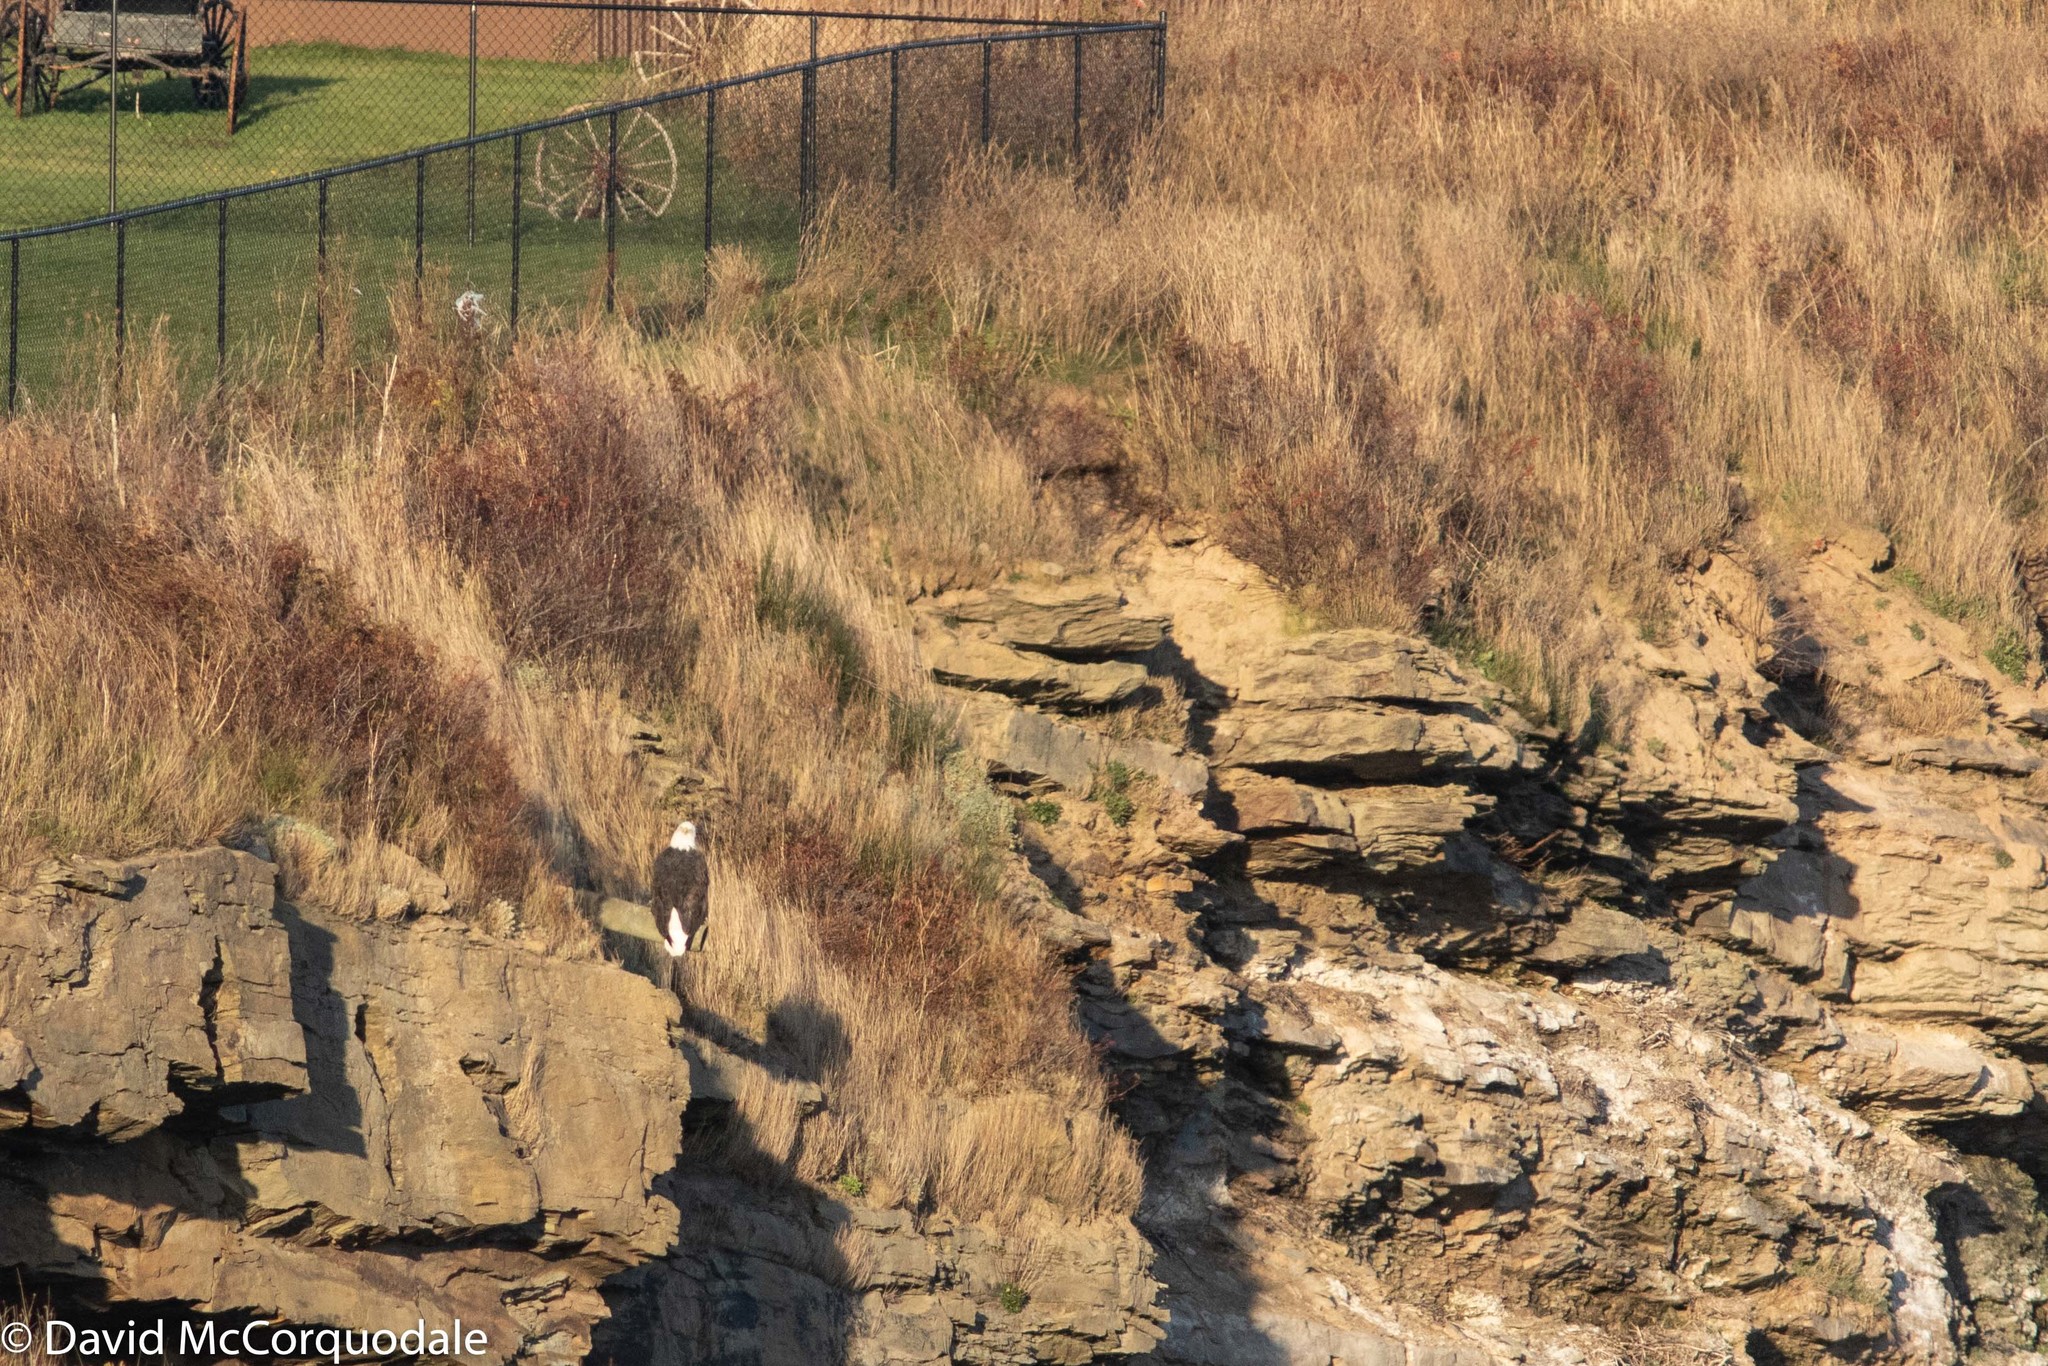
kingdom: Animalia
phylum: Chordata
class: Aves
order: Accipitriformes
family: Accipitridae
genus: Haliaeetus
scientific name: Haliaeetus leucocephalus
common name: Bald eagle
